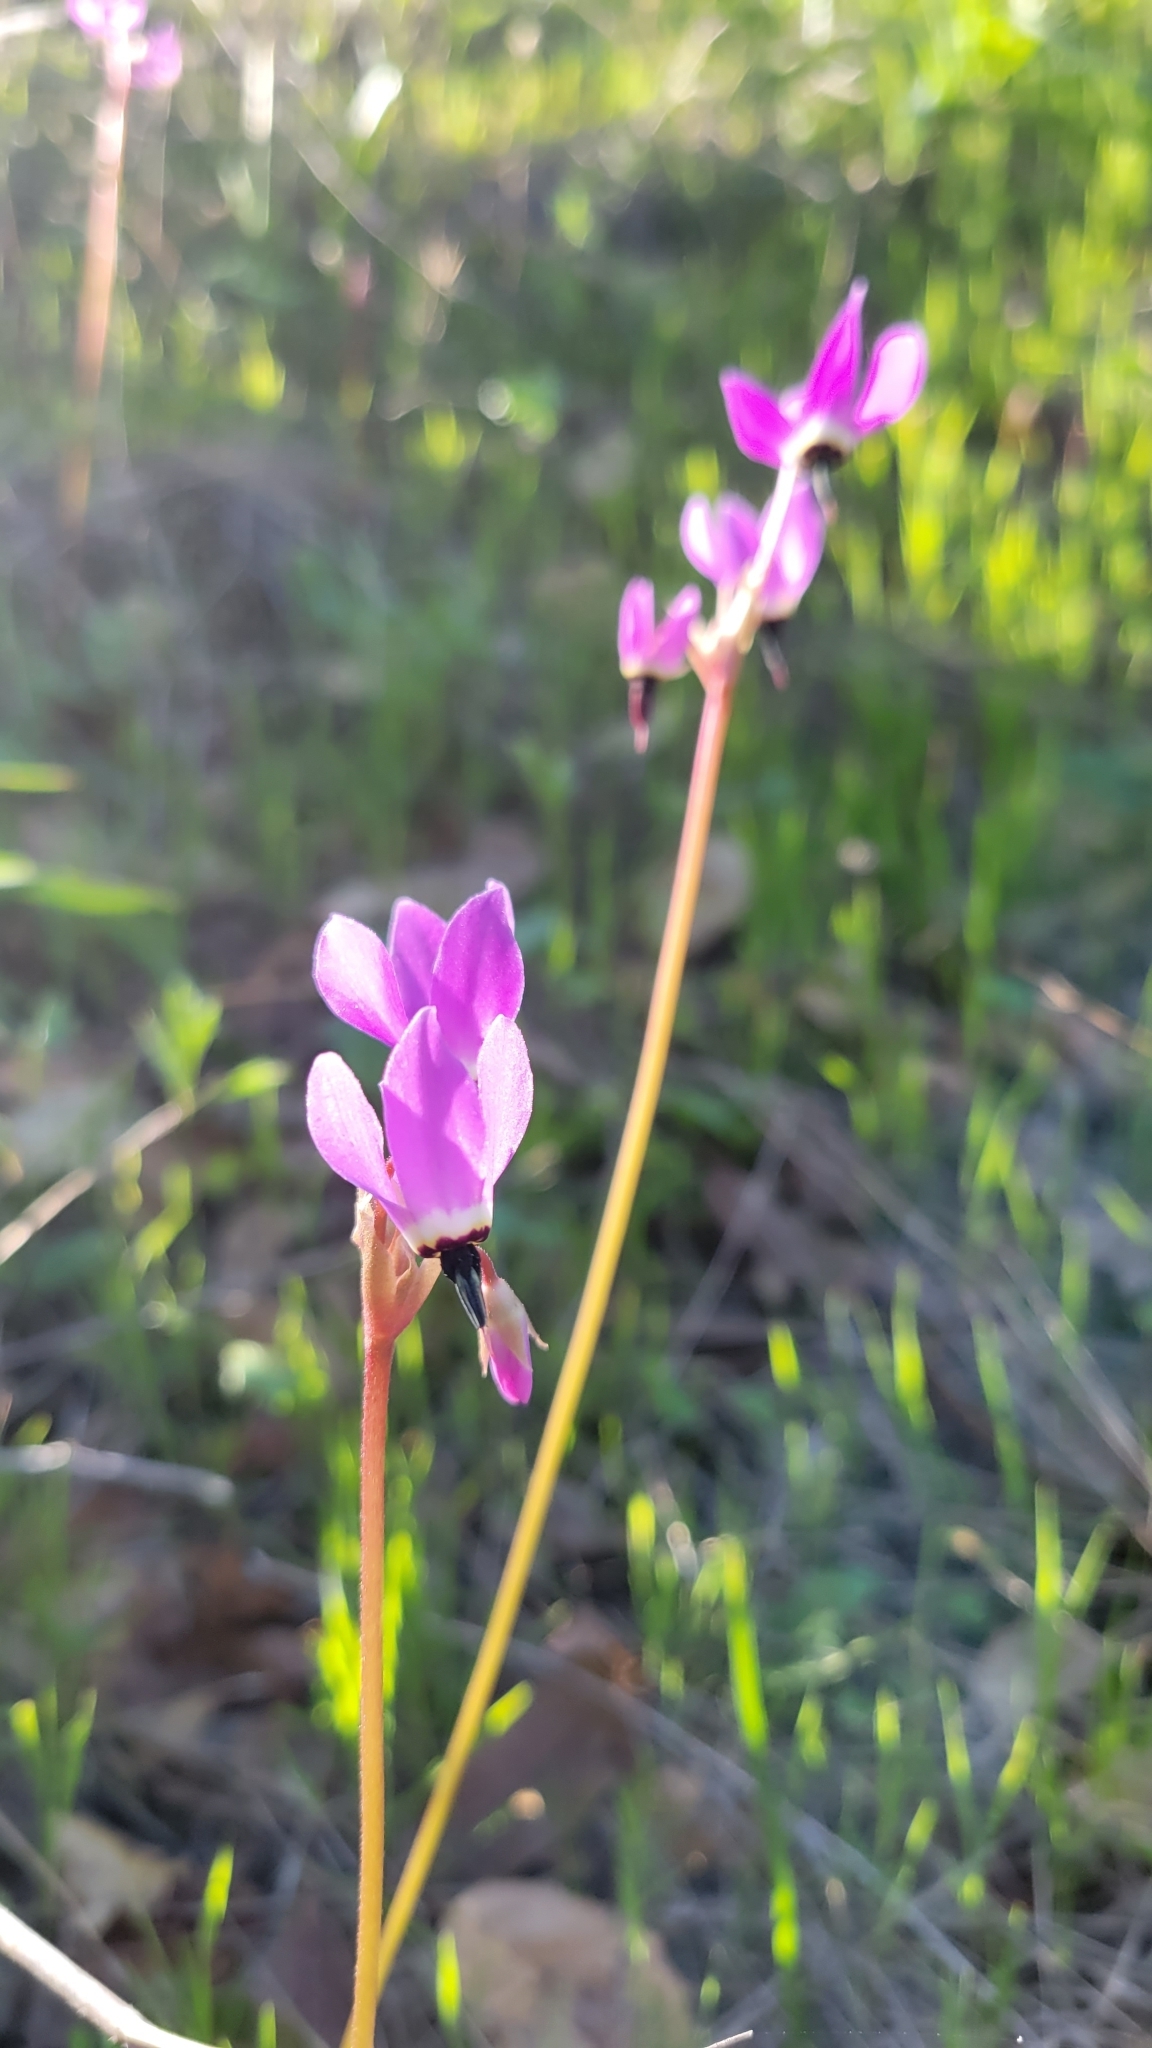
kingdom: Plantae
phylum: Tracheophyta
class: Magnoliopsida
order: Ericales
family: Primulaceae
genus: Dodecatheon
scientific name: Dodecatheon hendersonii
